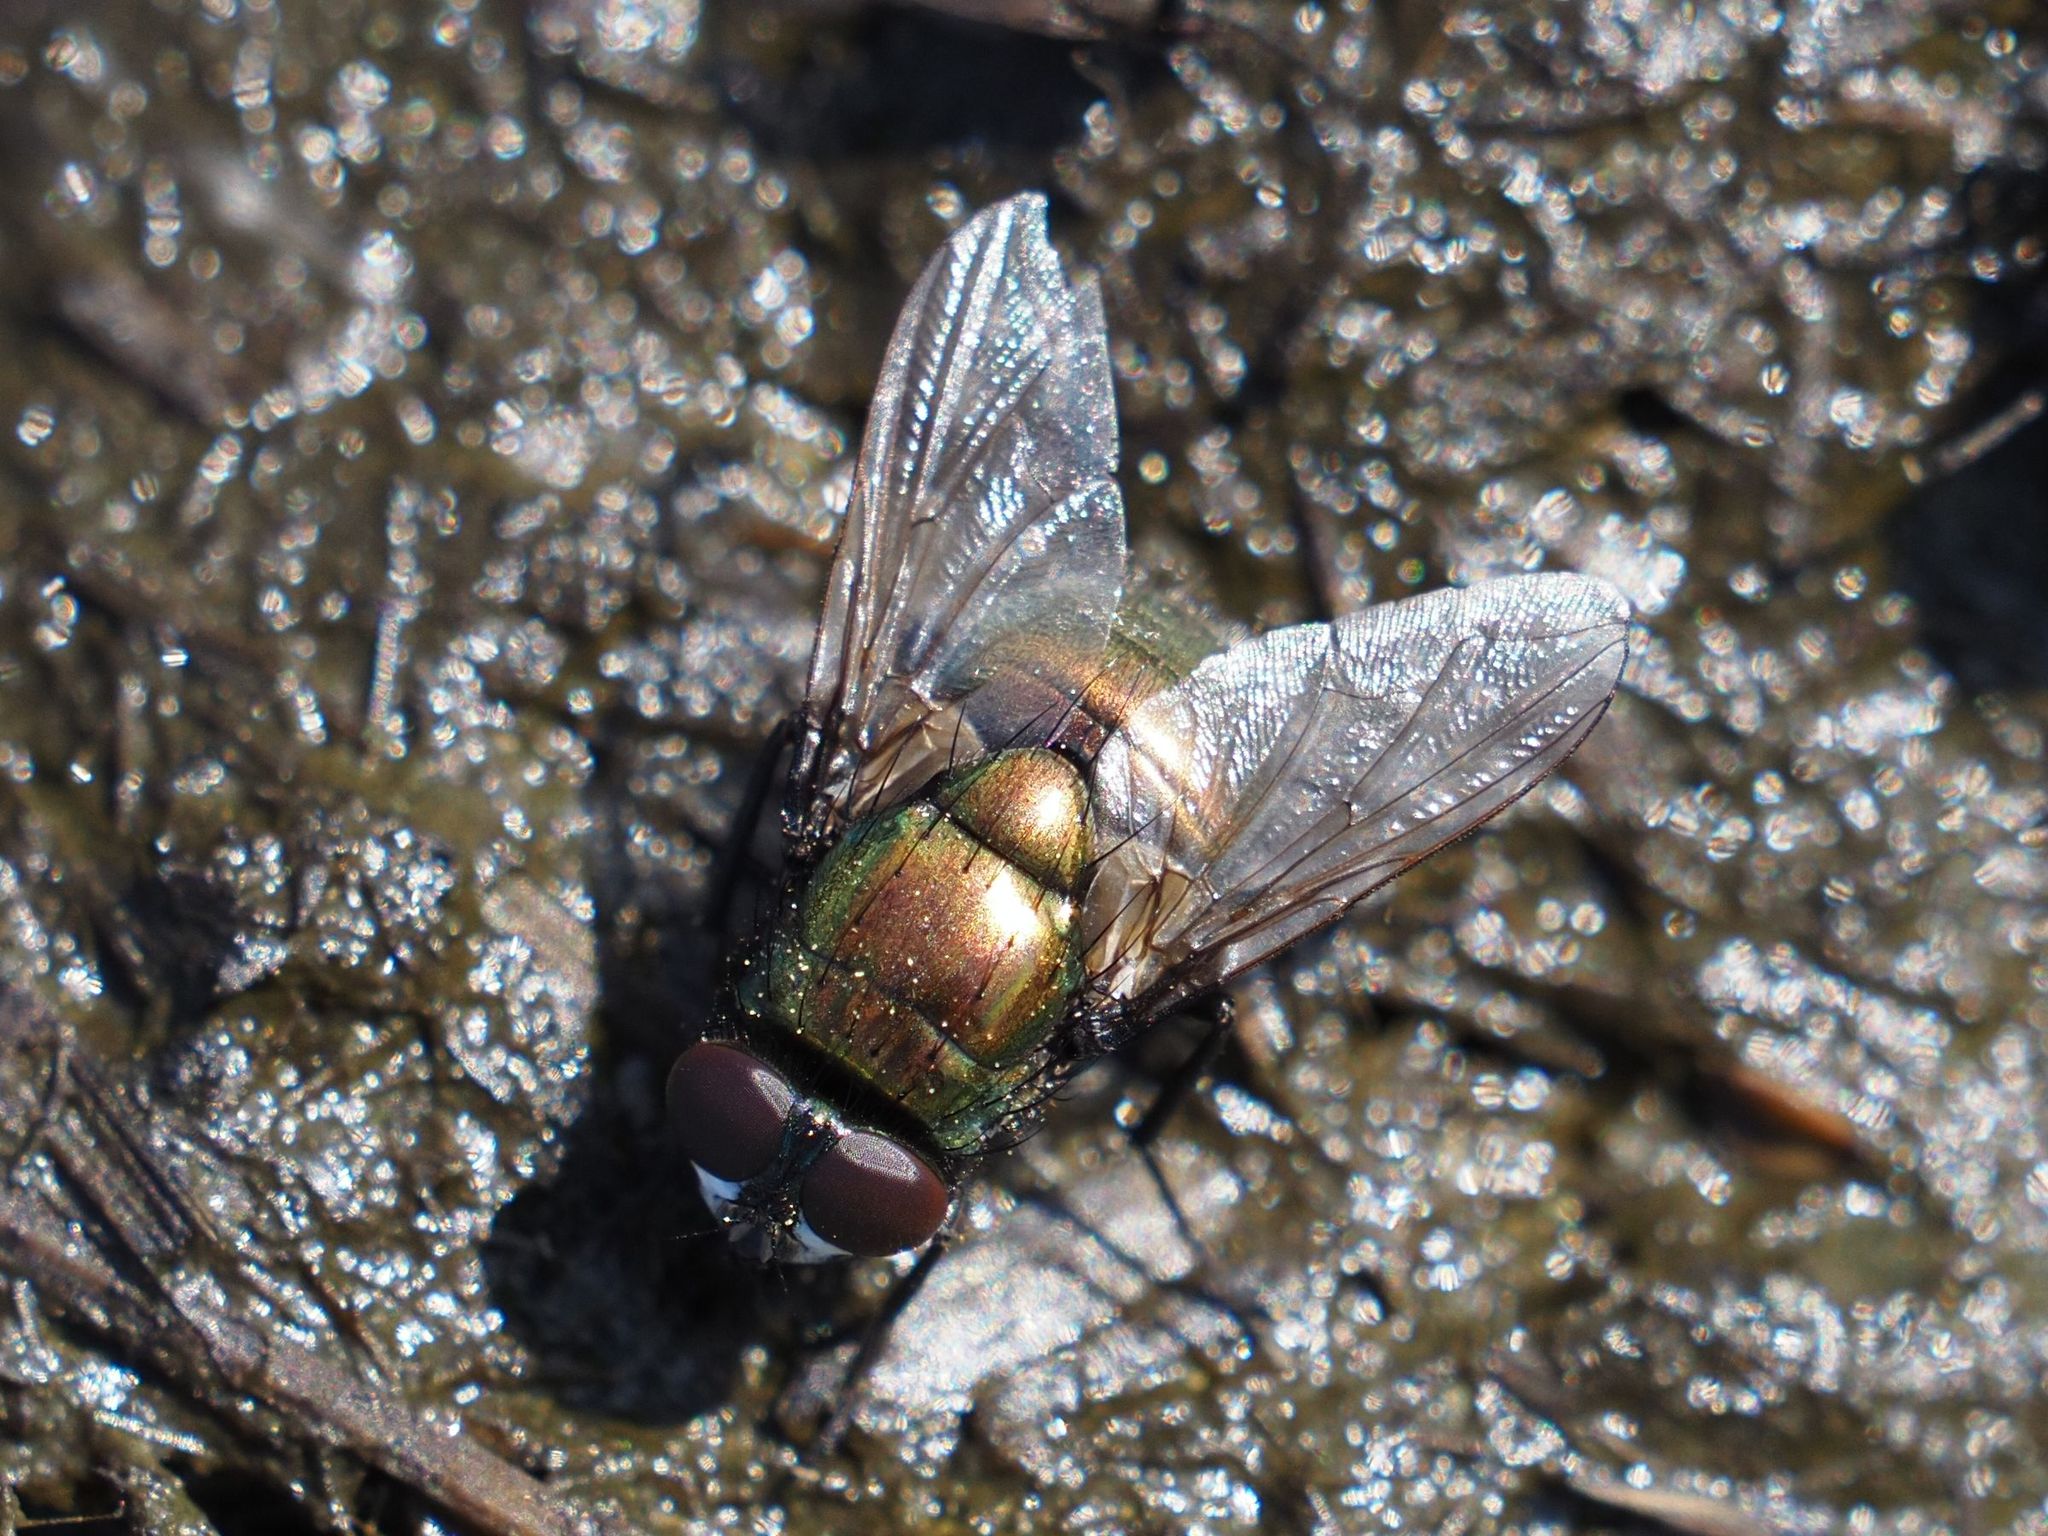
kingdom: Animalia
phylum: Arthropoda
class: Insecta
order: Diptera
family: Muscidae
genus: Neomyia
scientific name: Neomyia cornicina
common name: House fly
